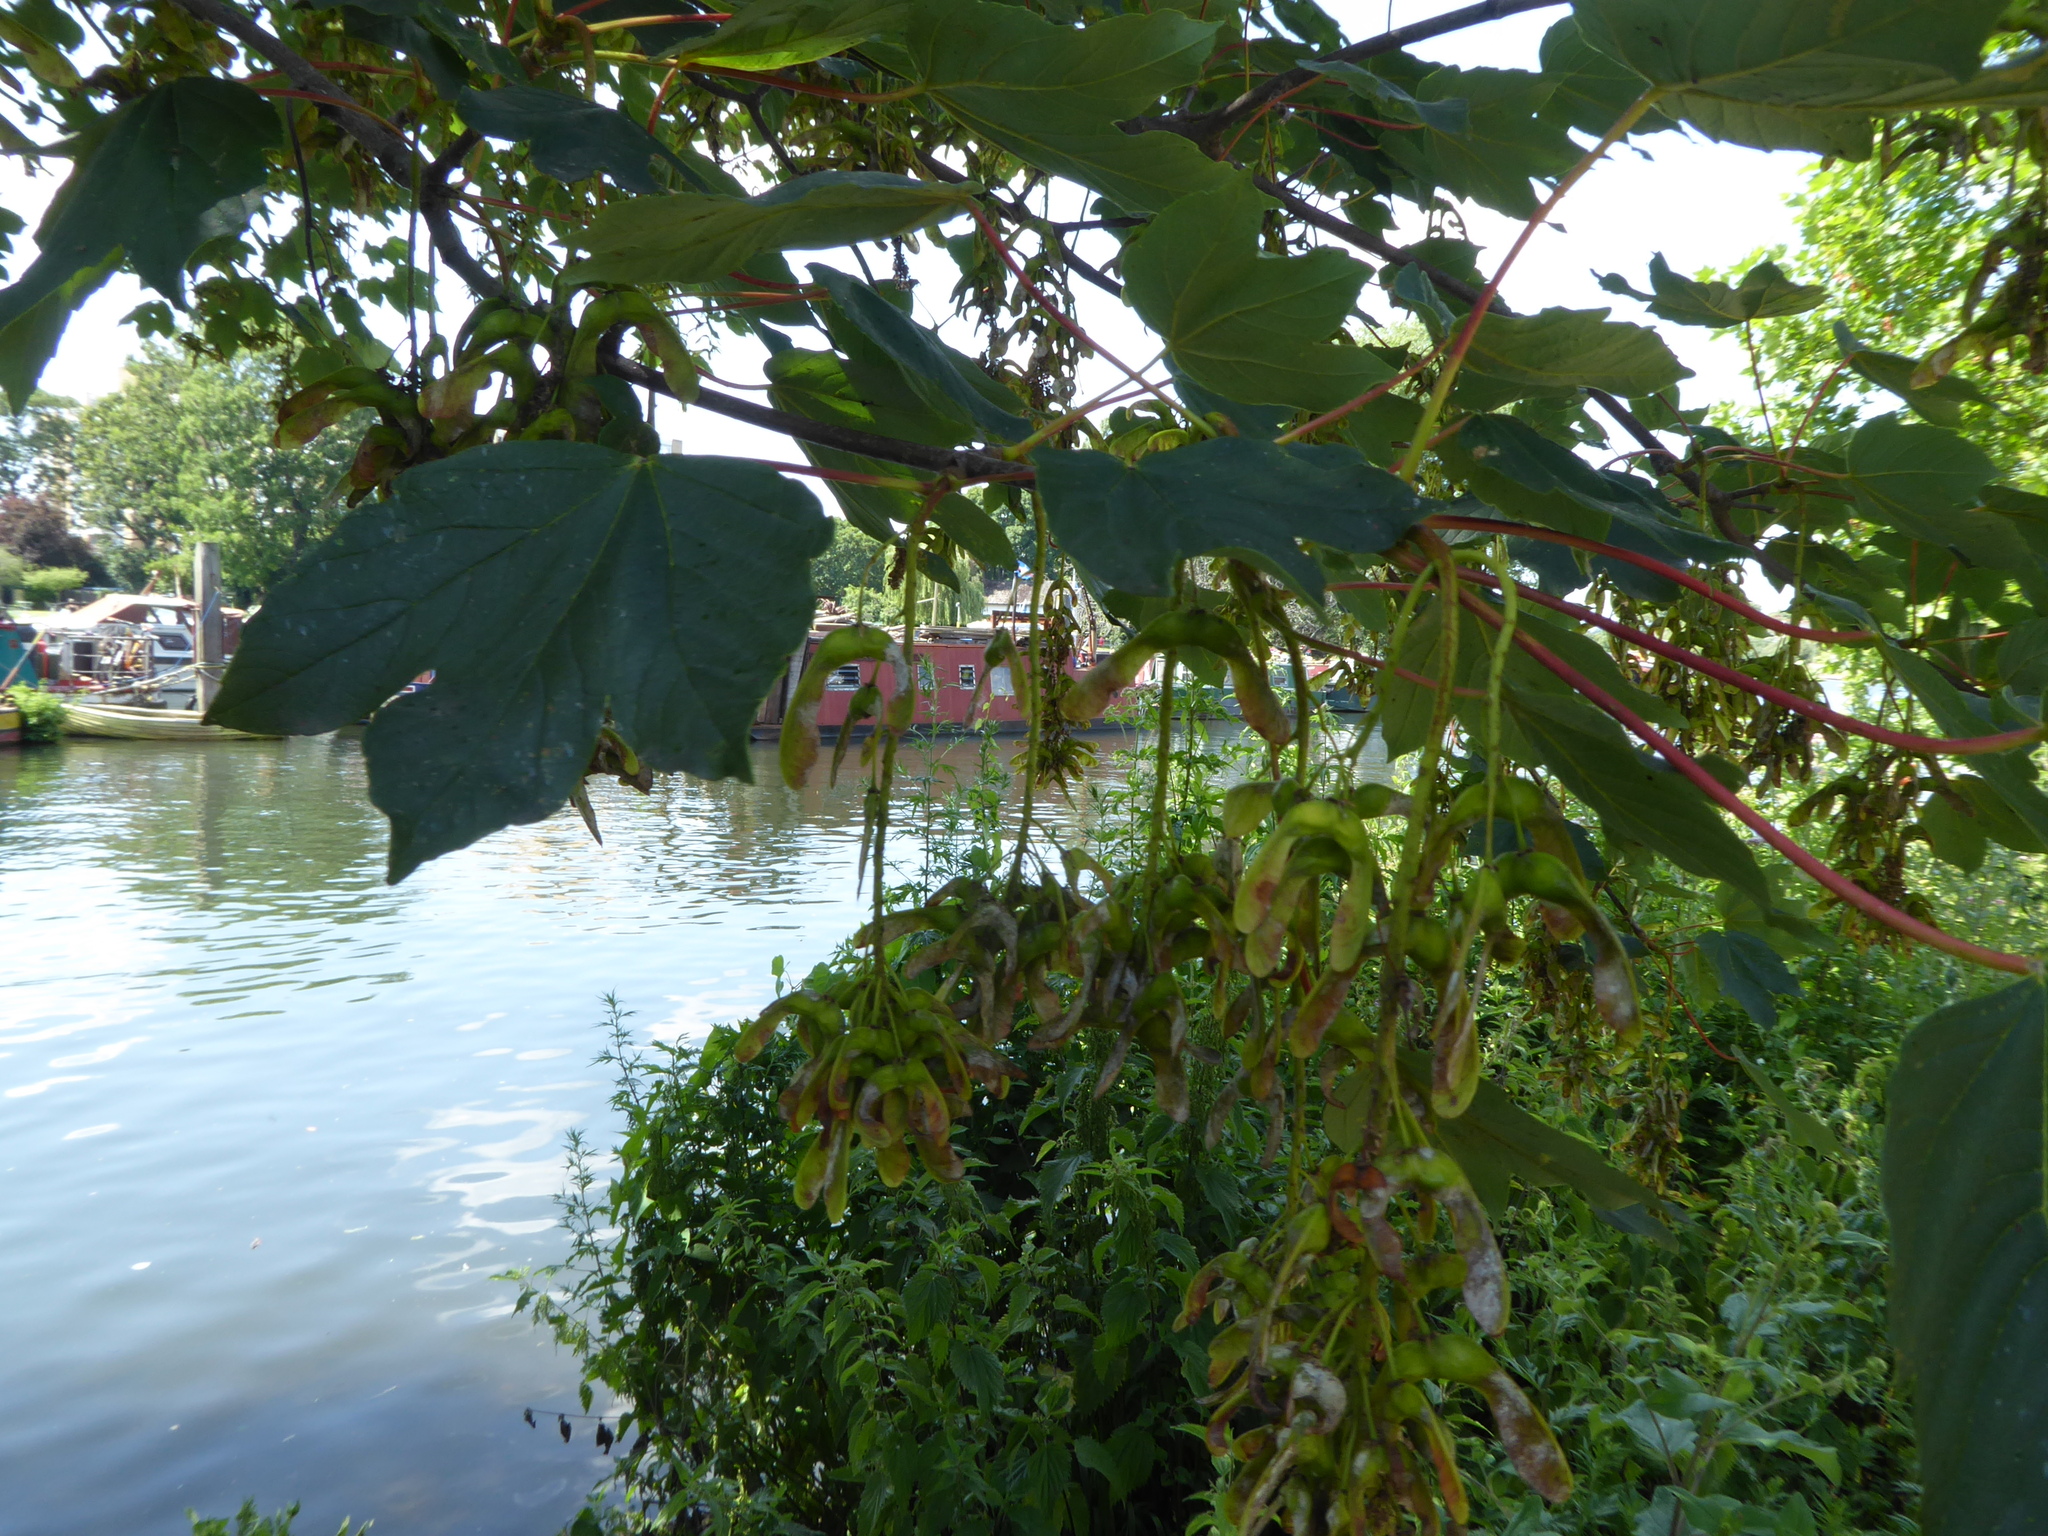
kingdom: Plantae
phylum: Tracheophyta
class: Magnoliopsida
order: Sapindales
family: Sapindaceae
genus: Acer
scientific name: Acer pseudoplatanus
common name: Sycamore
